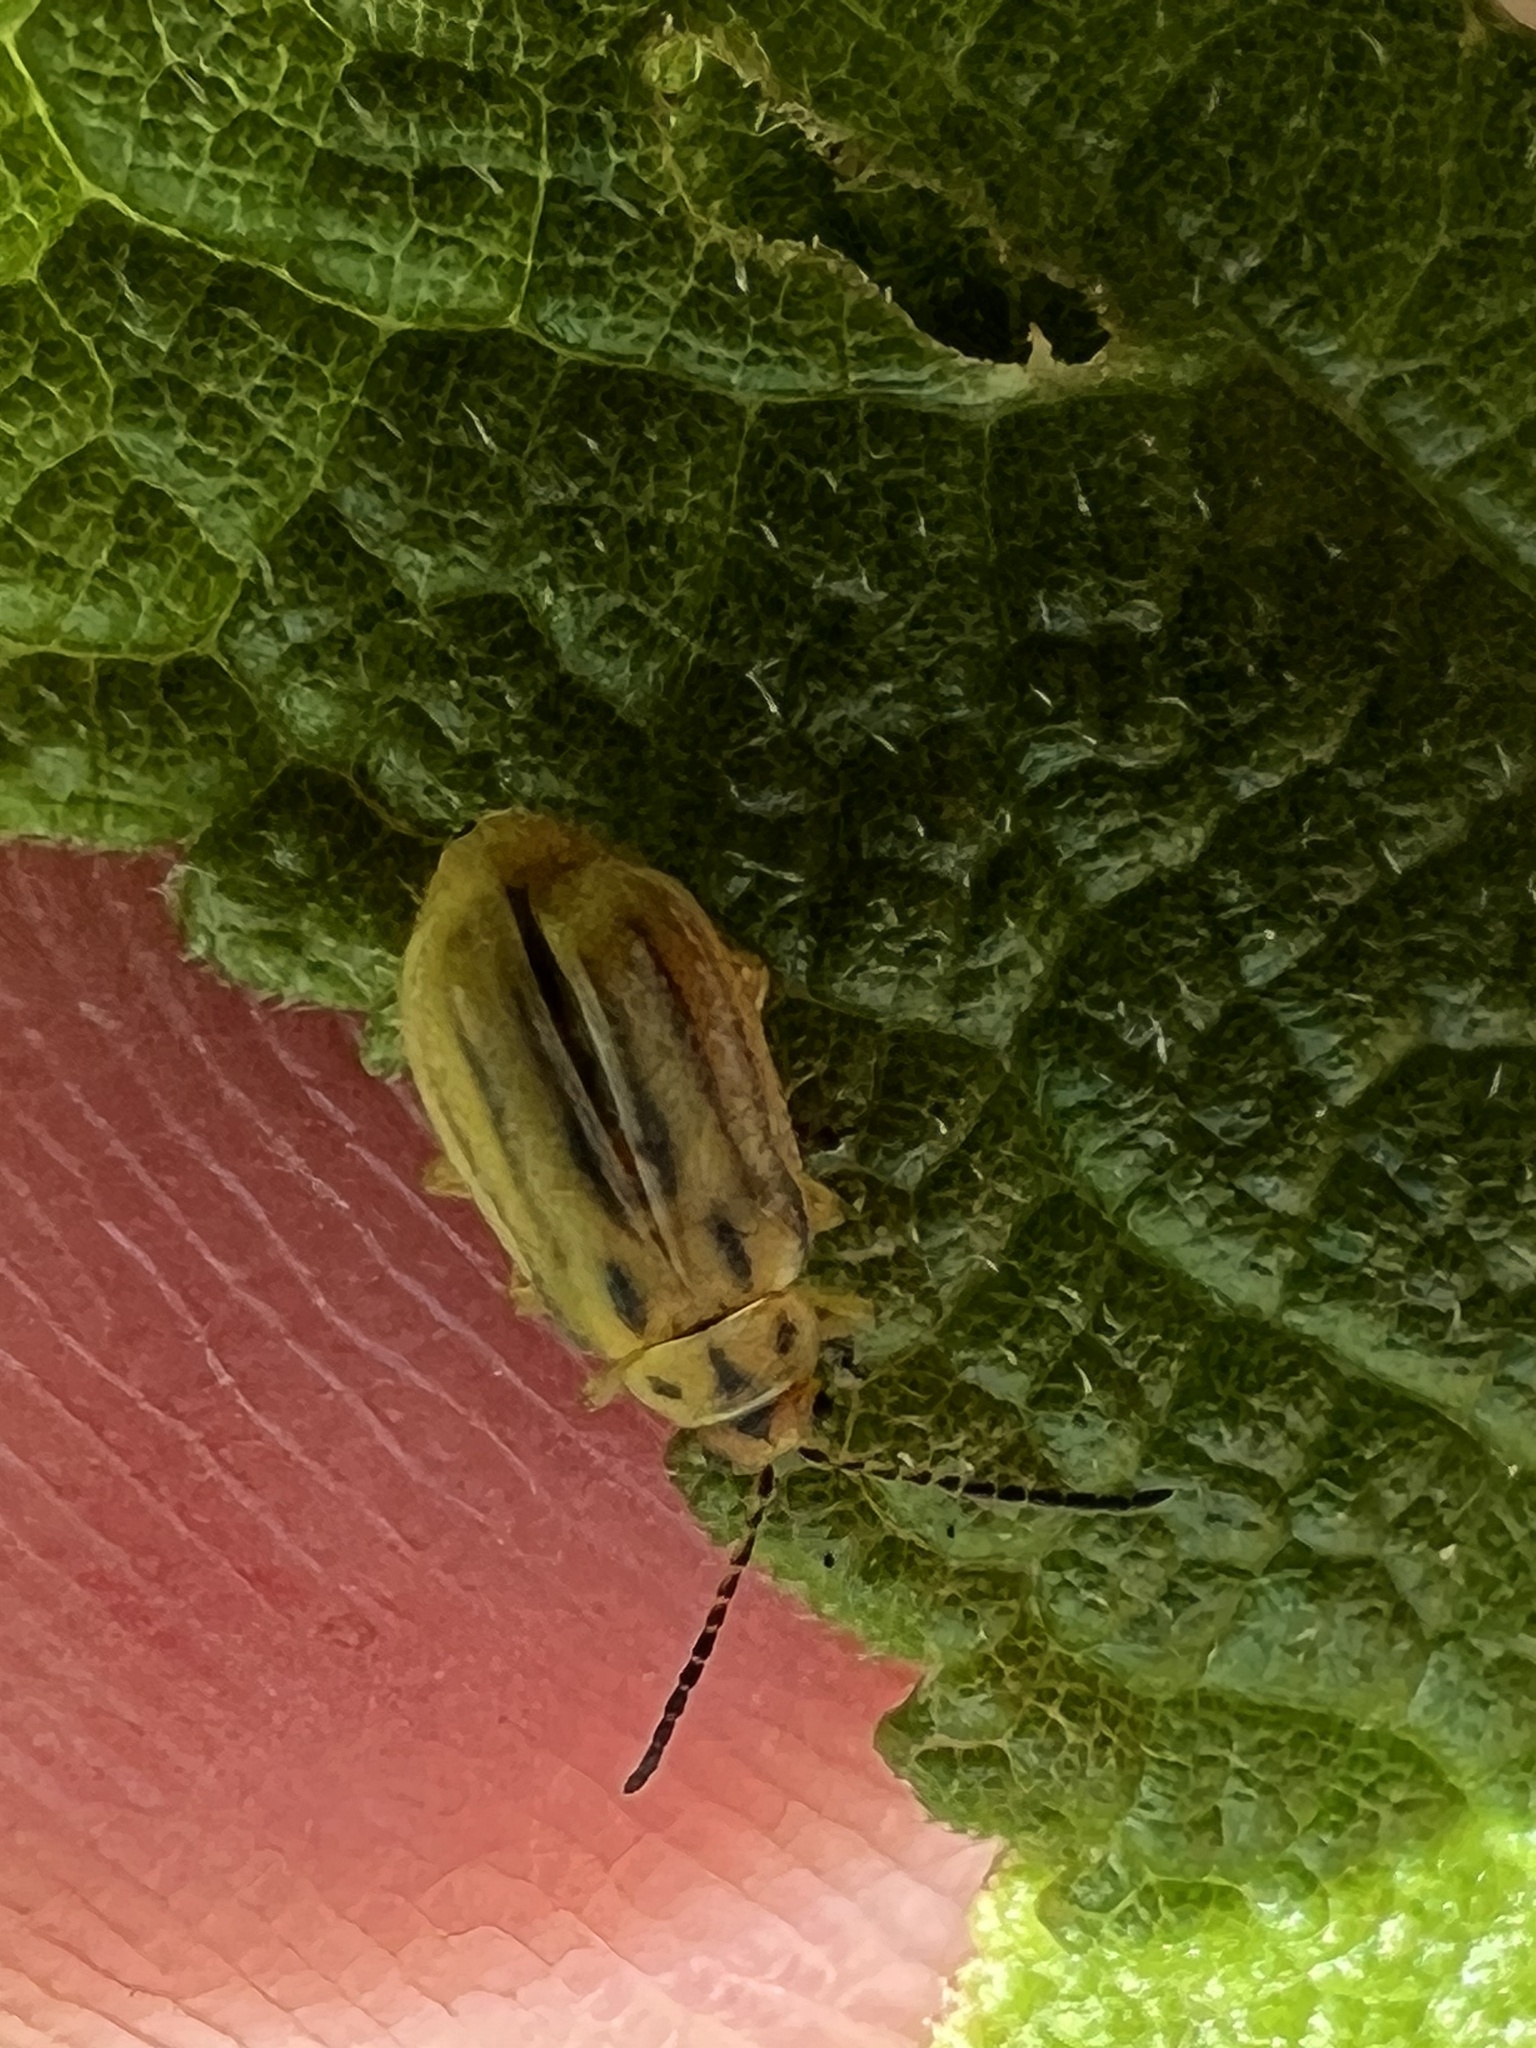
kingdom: Animalia
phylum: Arthropoda
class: Insecta
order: Coleoptera
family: Chrysomelidae
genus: Ophraella
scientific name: Ophraella communa
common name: Ragweed leaf beetle
